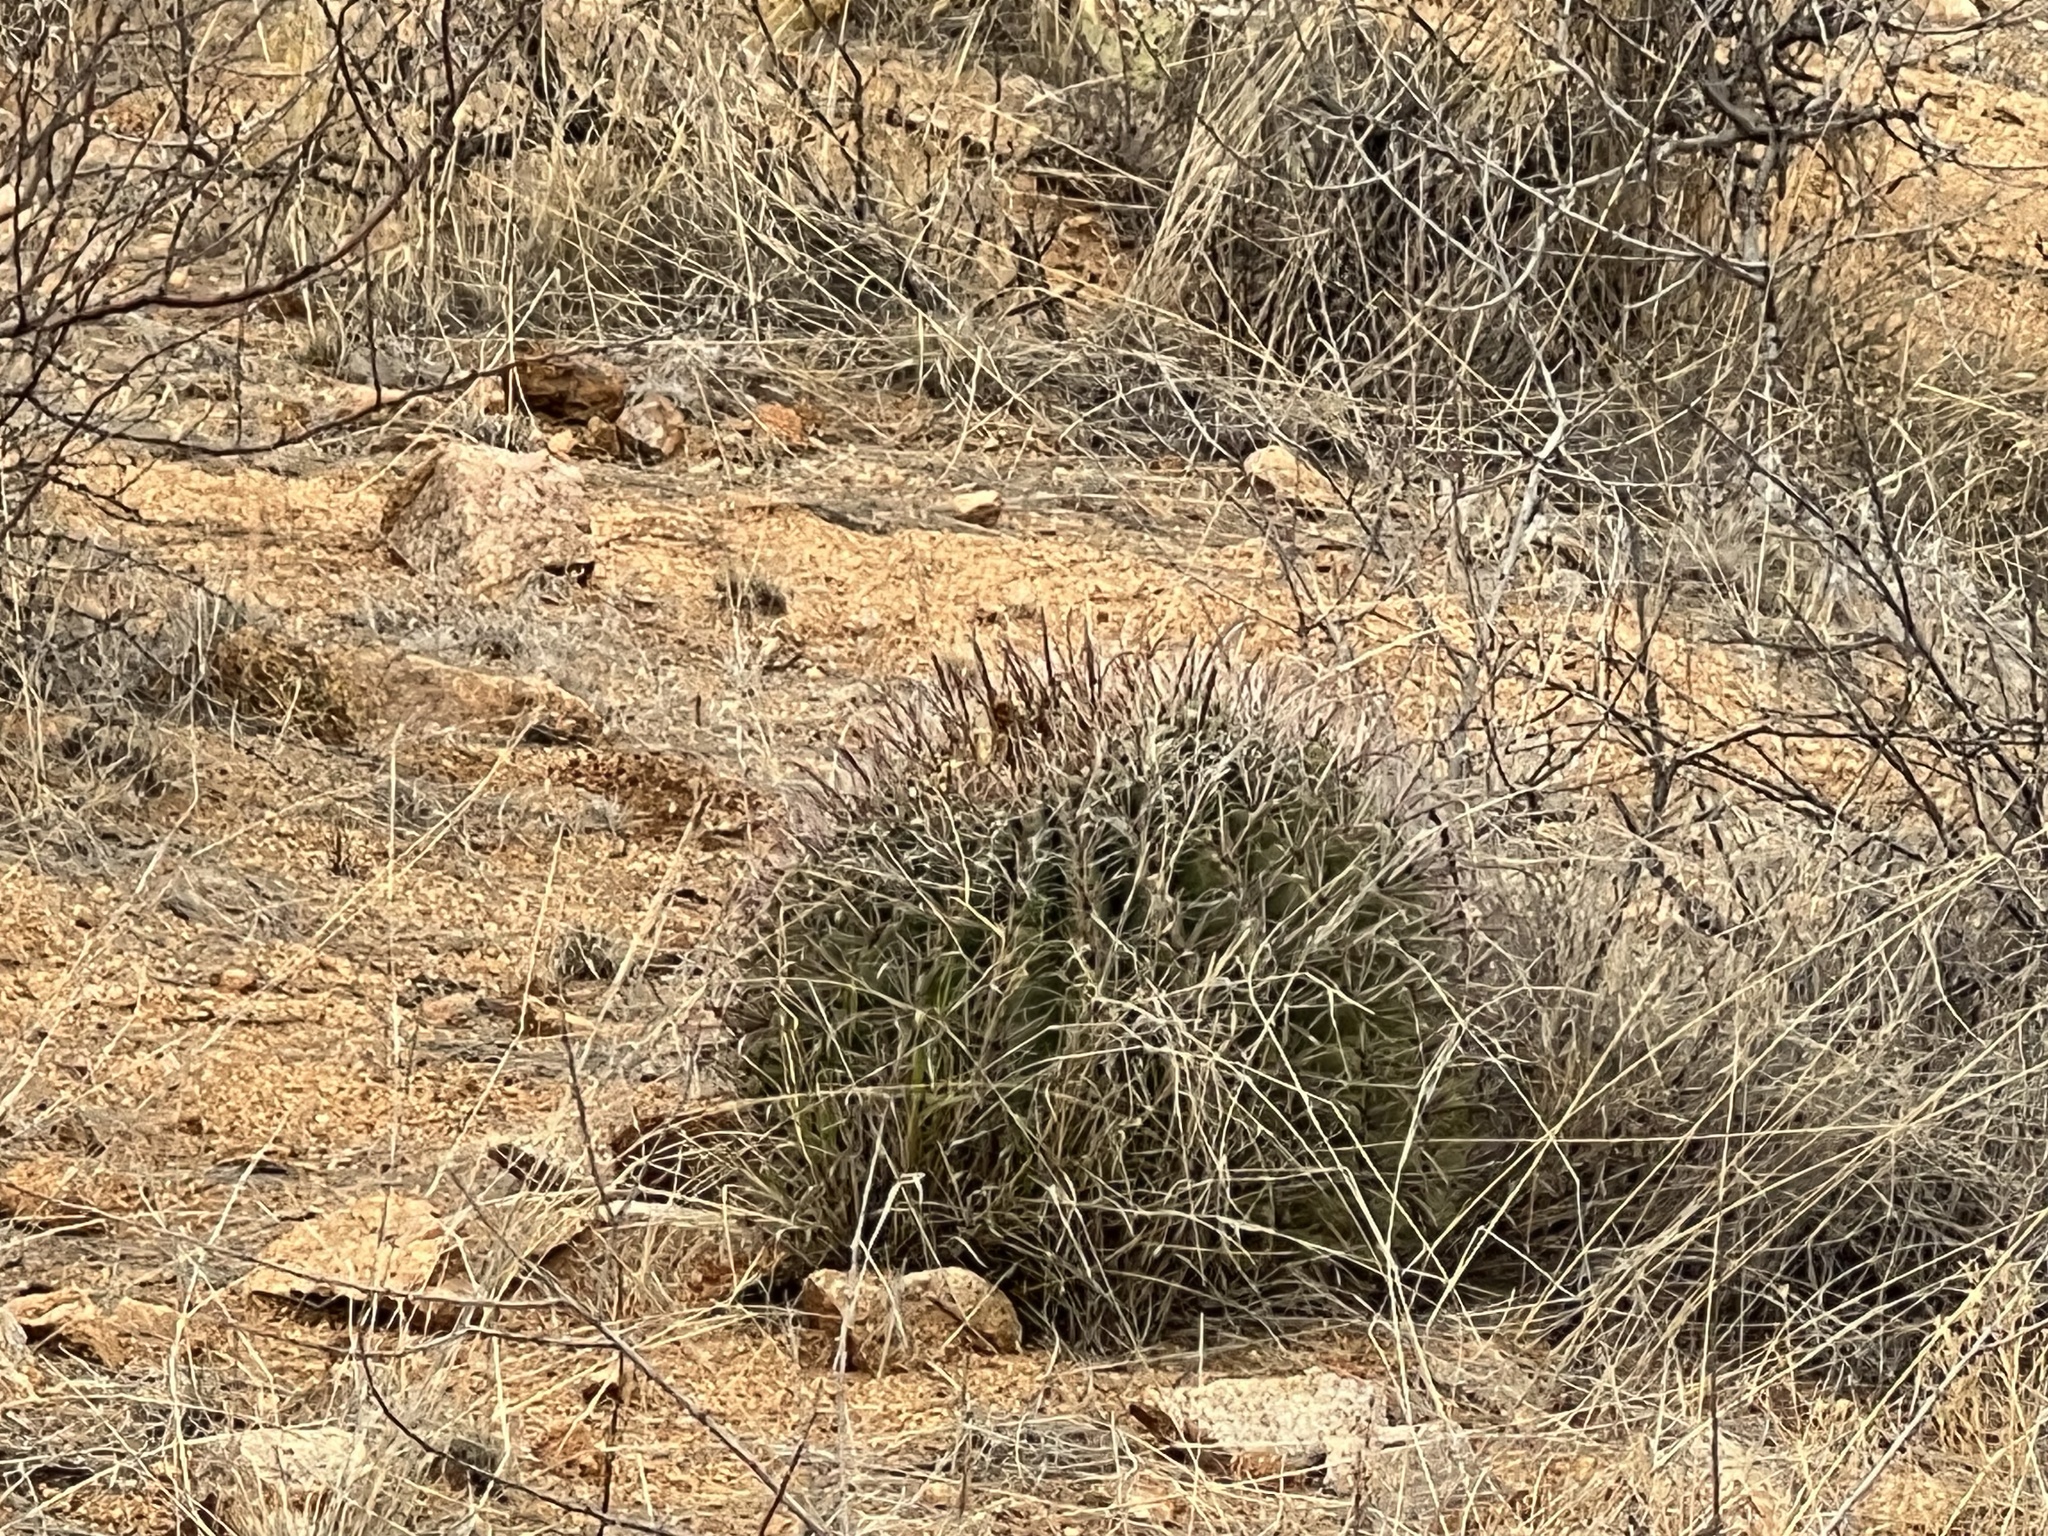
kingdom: Plantae
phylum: Tracheophyta
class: Magnoliopsida
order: Caryophyllales
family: Cactaceae
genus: Ferocactus
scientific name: Ferocactus wislizeni
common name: Candy barrel cactus
